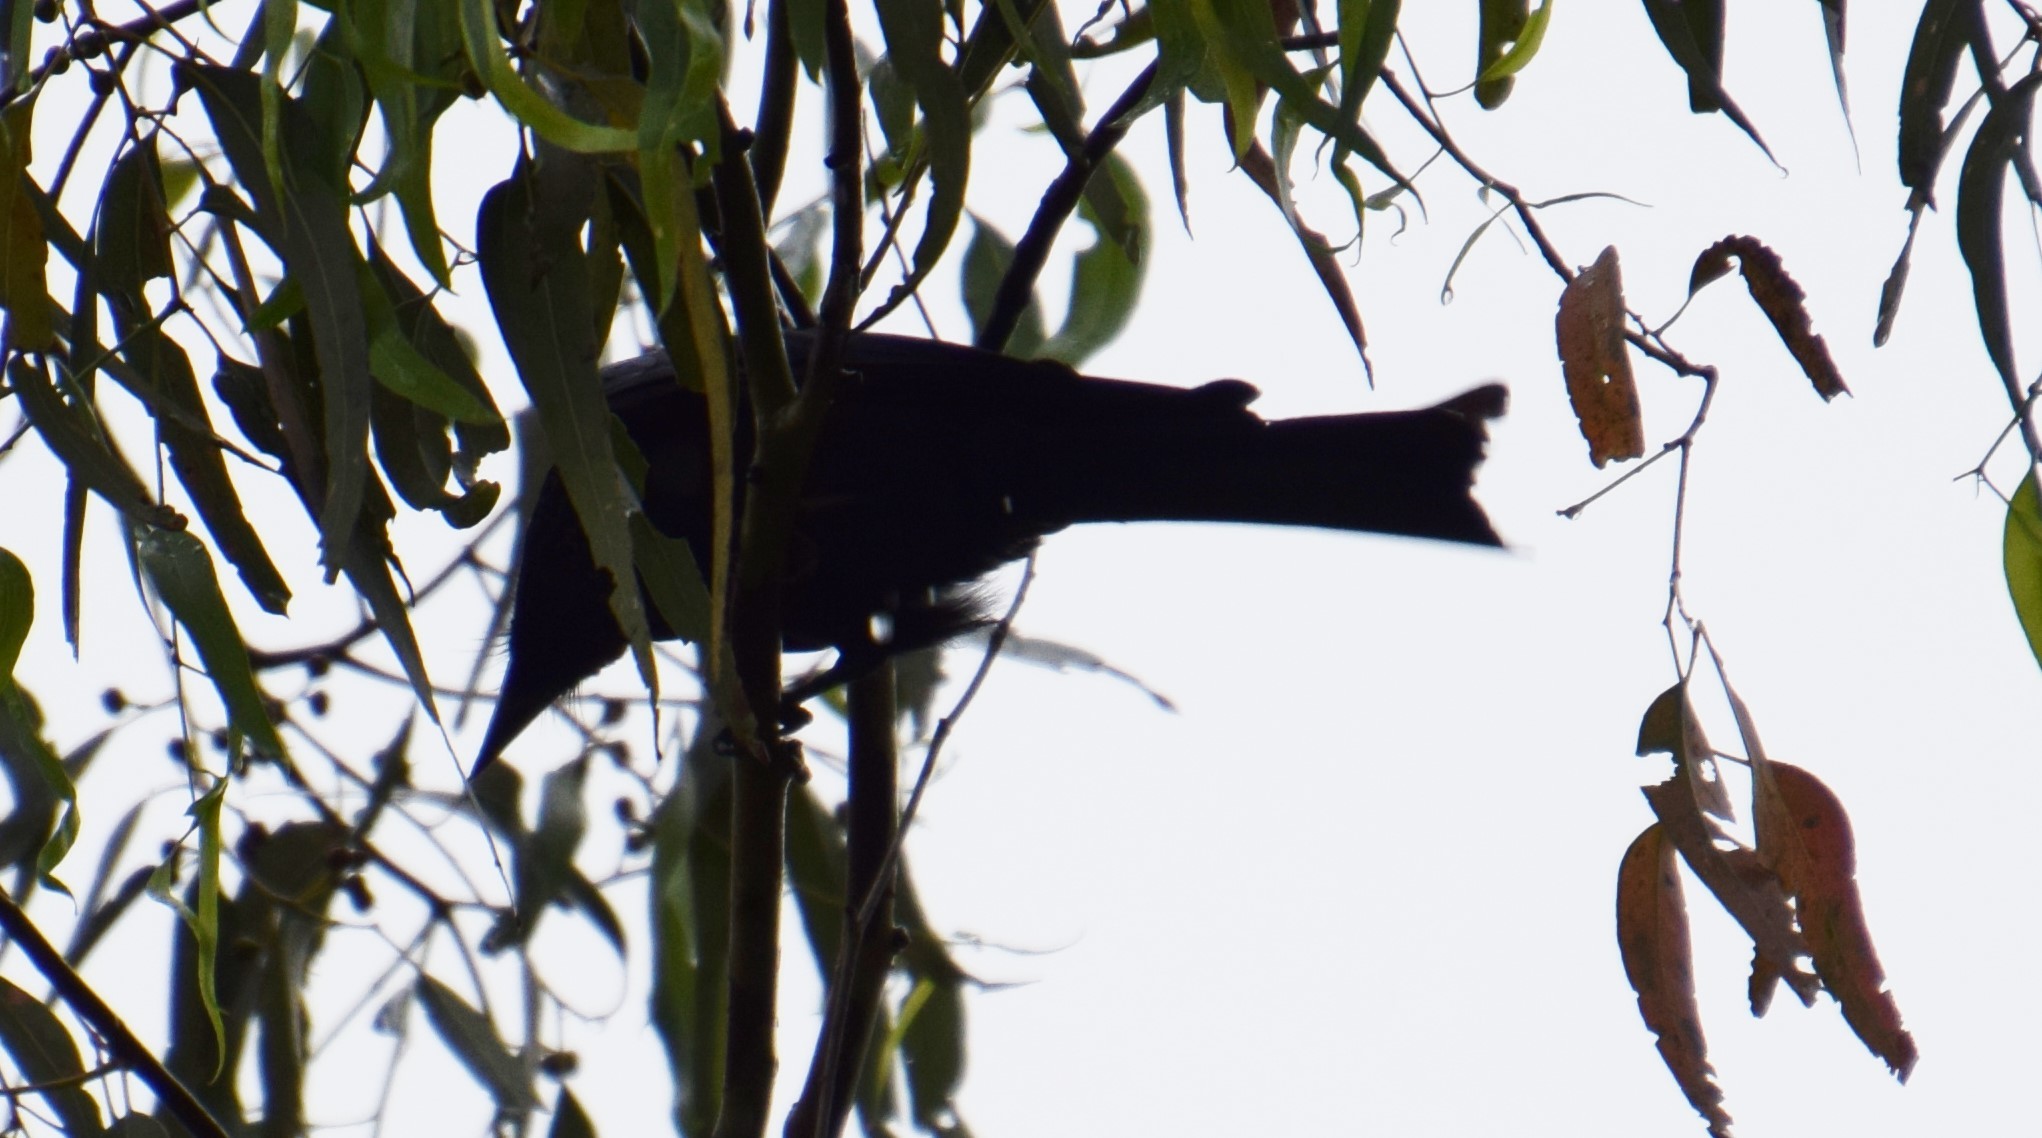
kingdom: Animalia
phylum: Chordata
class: Aves
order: Passeriformes
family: Dicruridae
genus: Dicrurus
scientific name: Dicrurus bracteatus
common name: Spangled drongo
